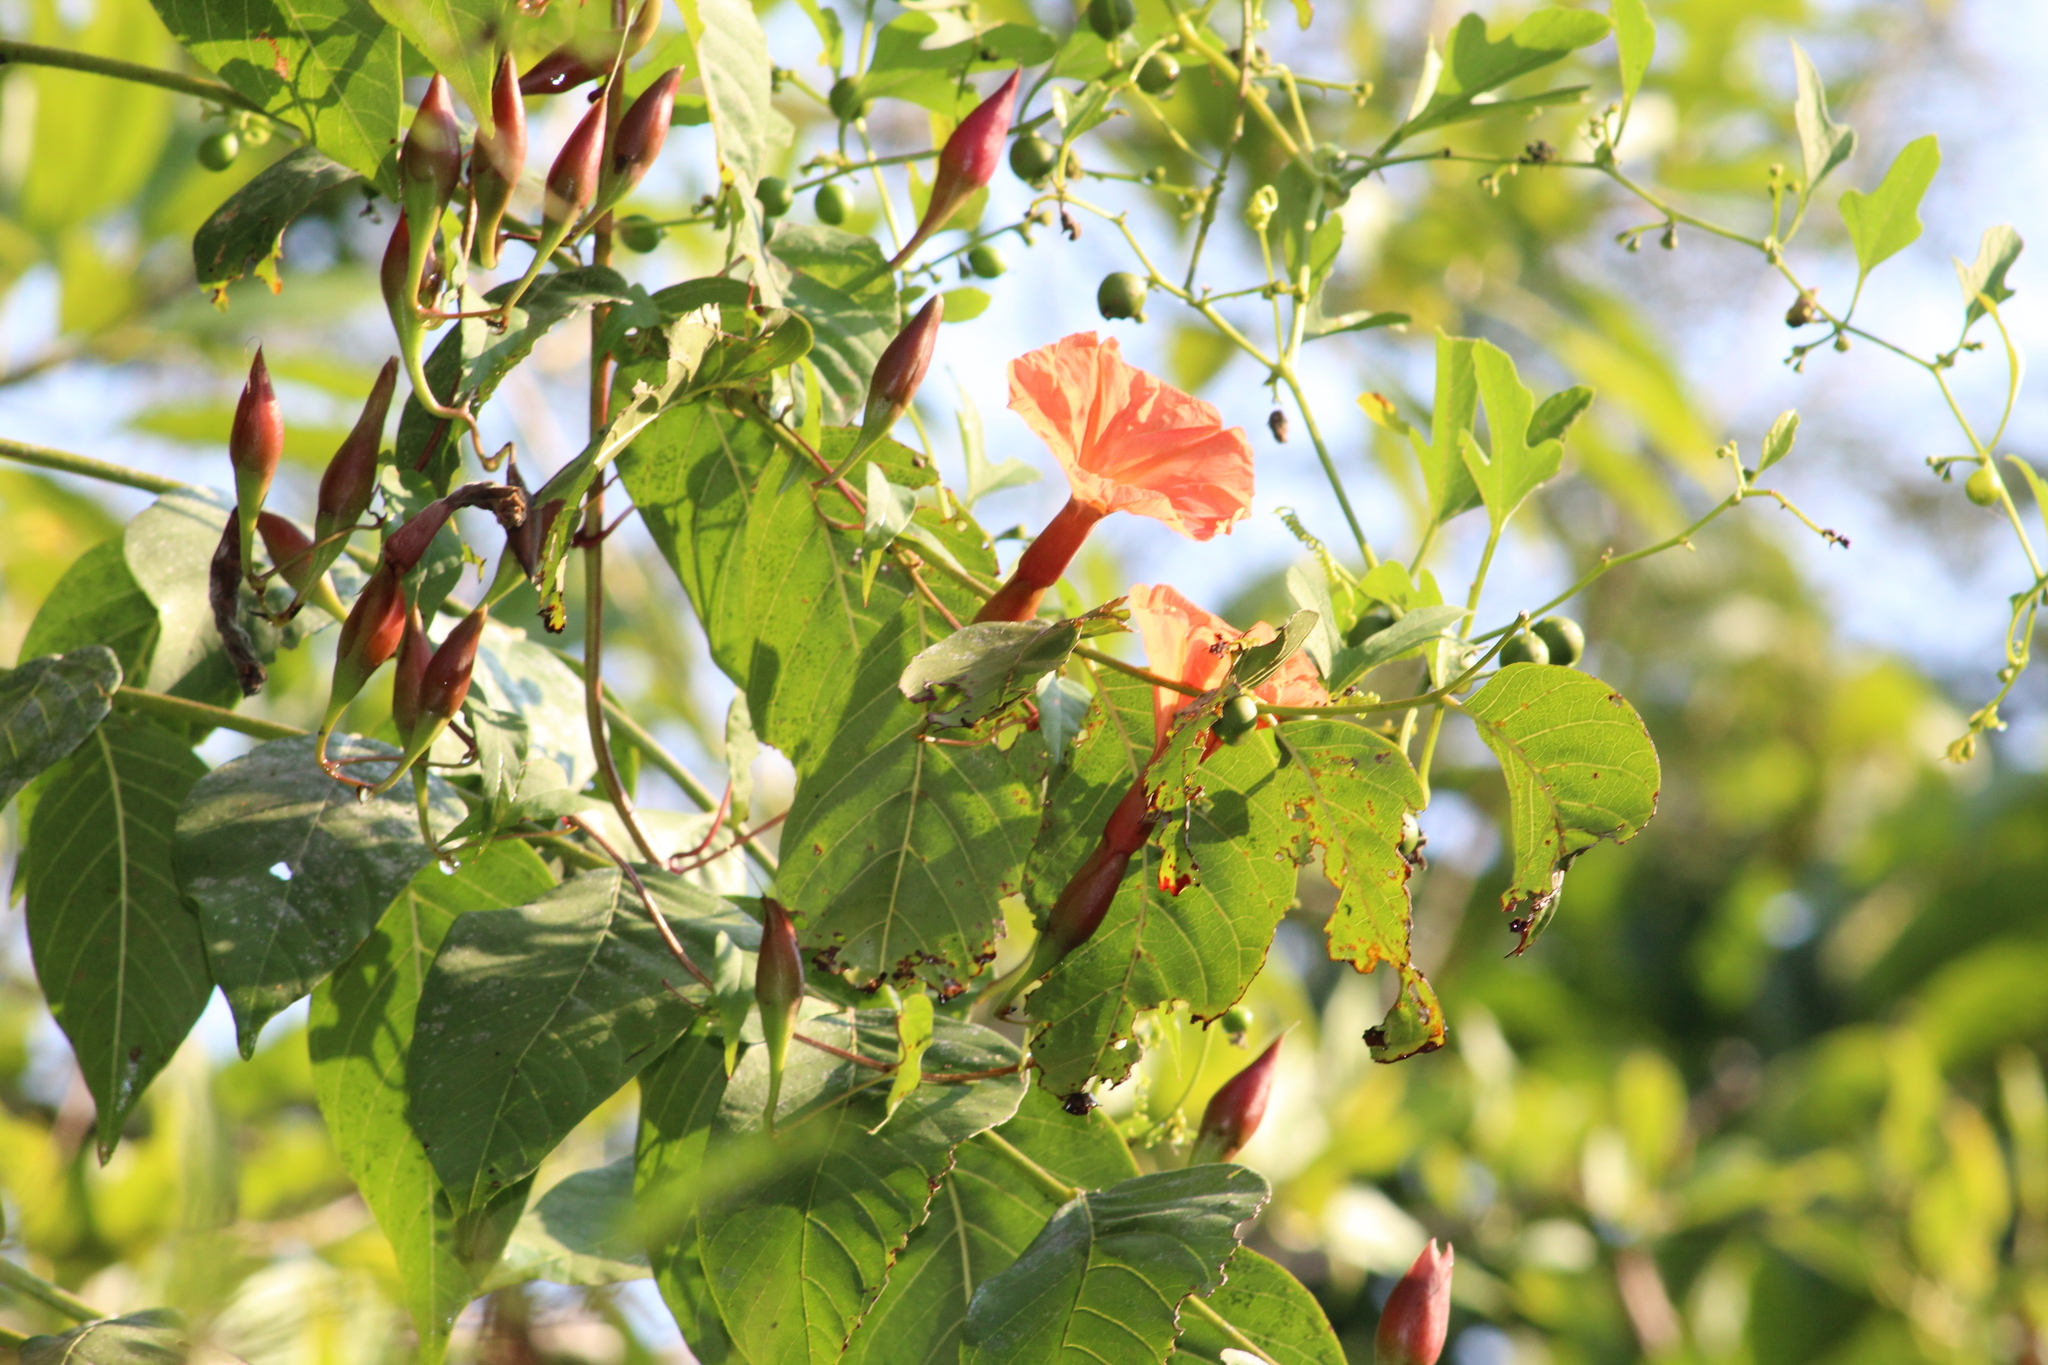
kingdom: Plantae
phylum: Tracheophyta
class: Magnoliopsida
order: Solanales
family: Convolvulaceae
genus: Operculina
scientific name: Operculina pteripes
